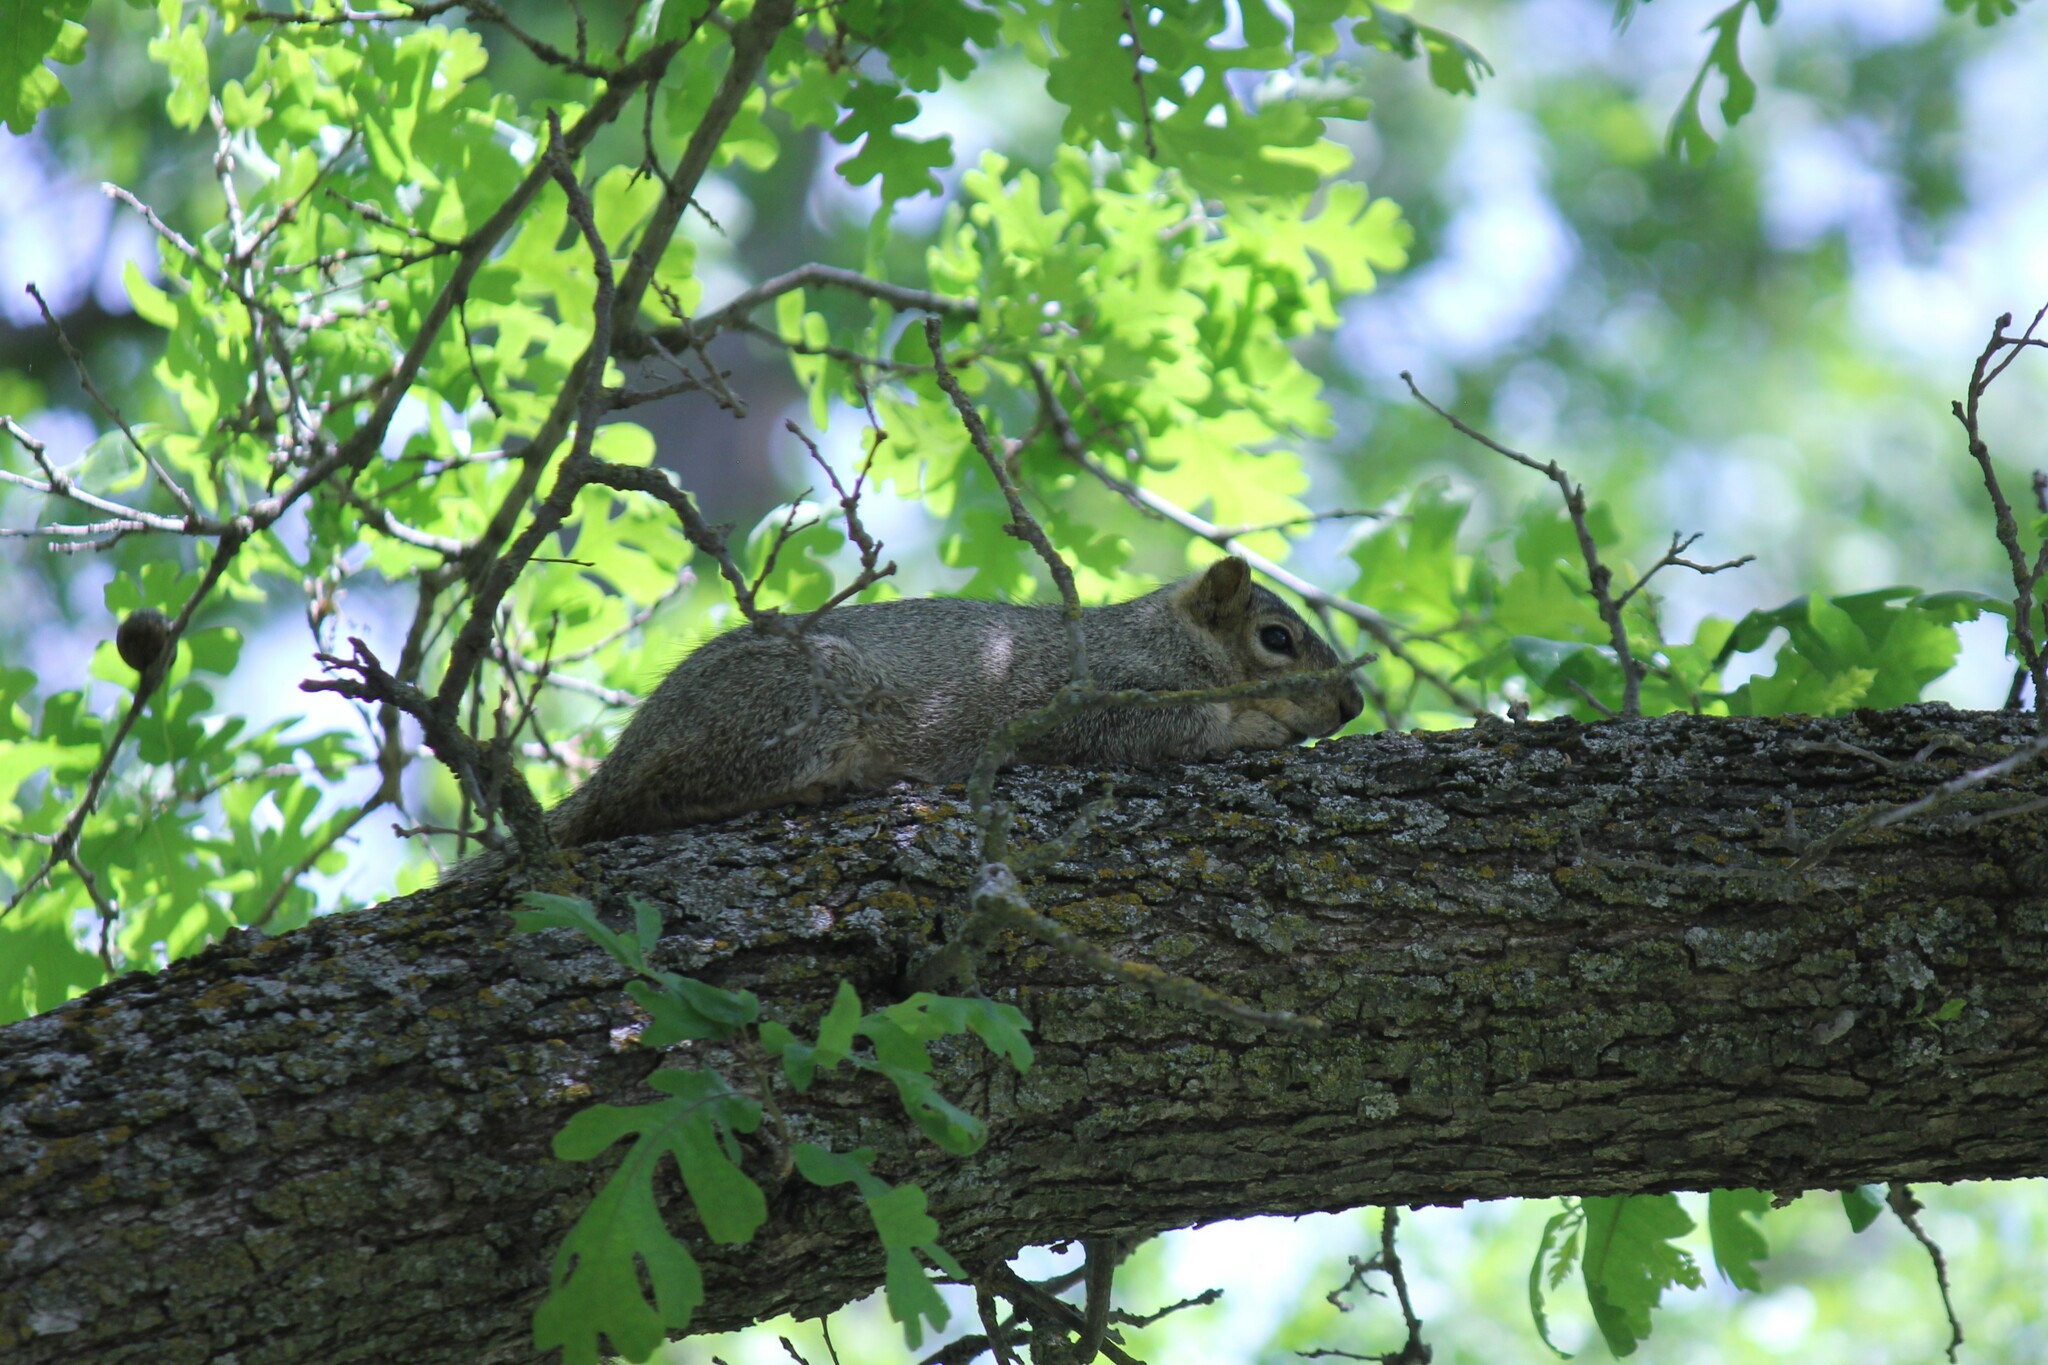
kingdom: Animalia
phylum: Chordata
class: Mammalia
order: Rodentia
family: Sciuridae
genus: Sciurus
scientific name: Sciurus niger
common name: Fox squirrel
